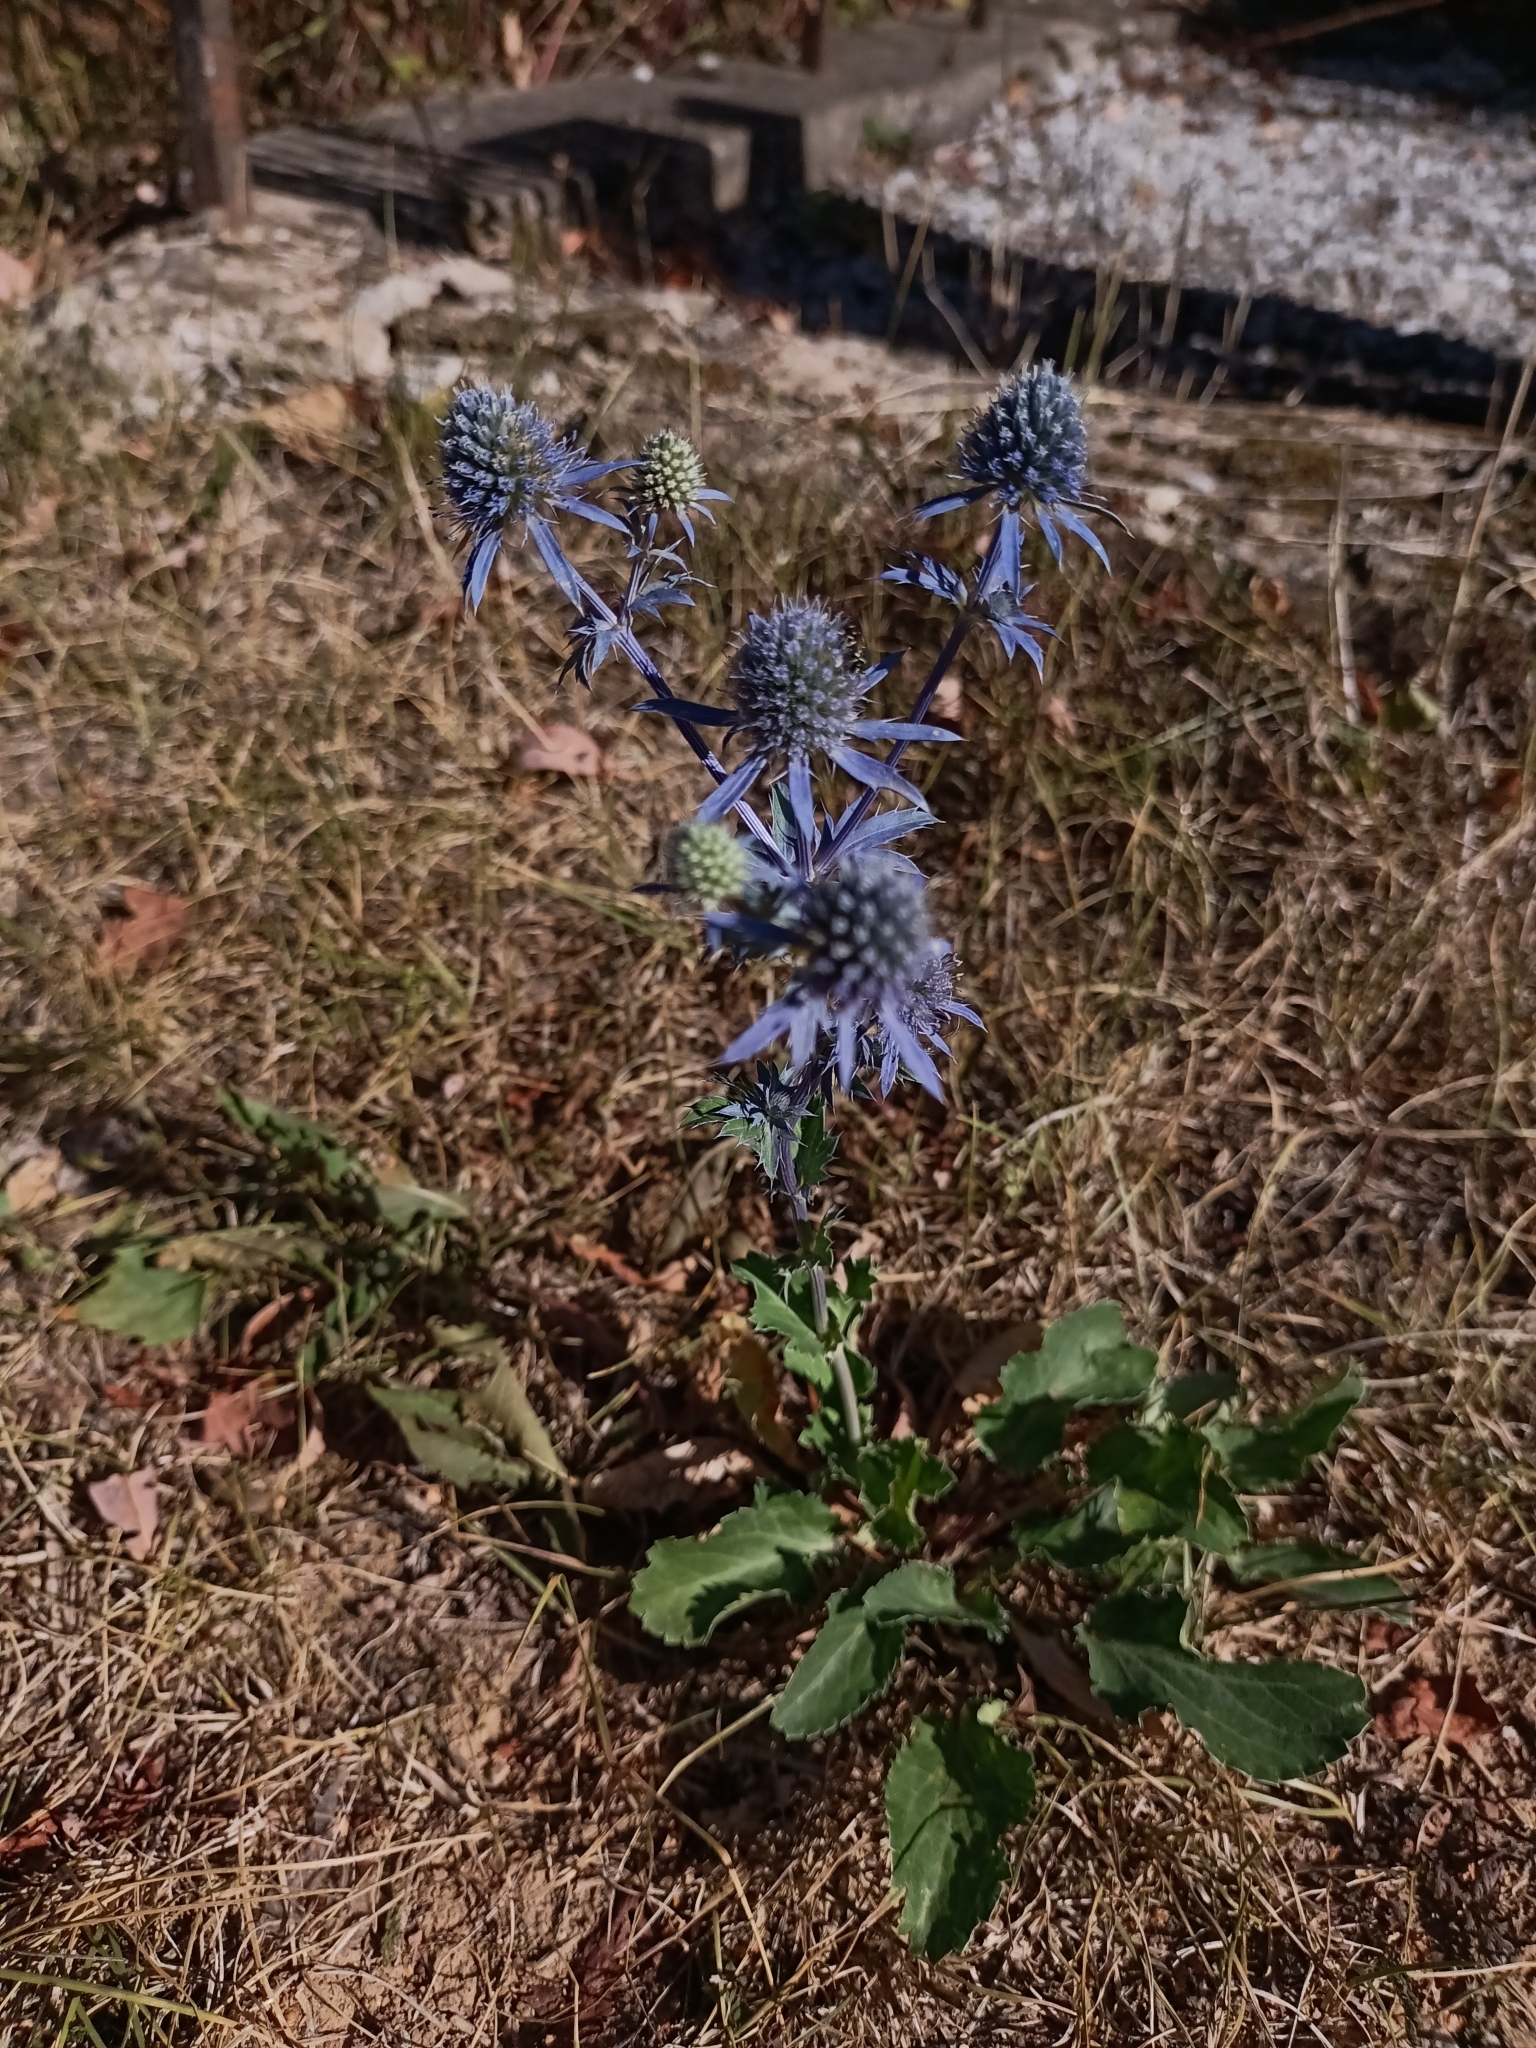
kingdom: Plantae
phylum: Tracheophyta
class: Magnoliopsida
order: Apiales
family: Apiaceae
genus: Eryngium
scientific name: Eryngium planum
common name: Blue eryngo
